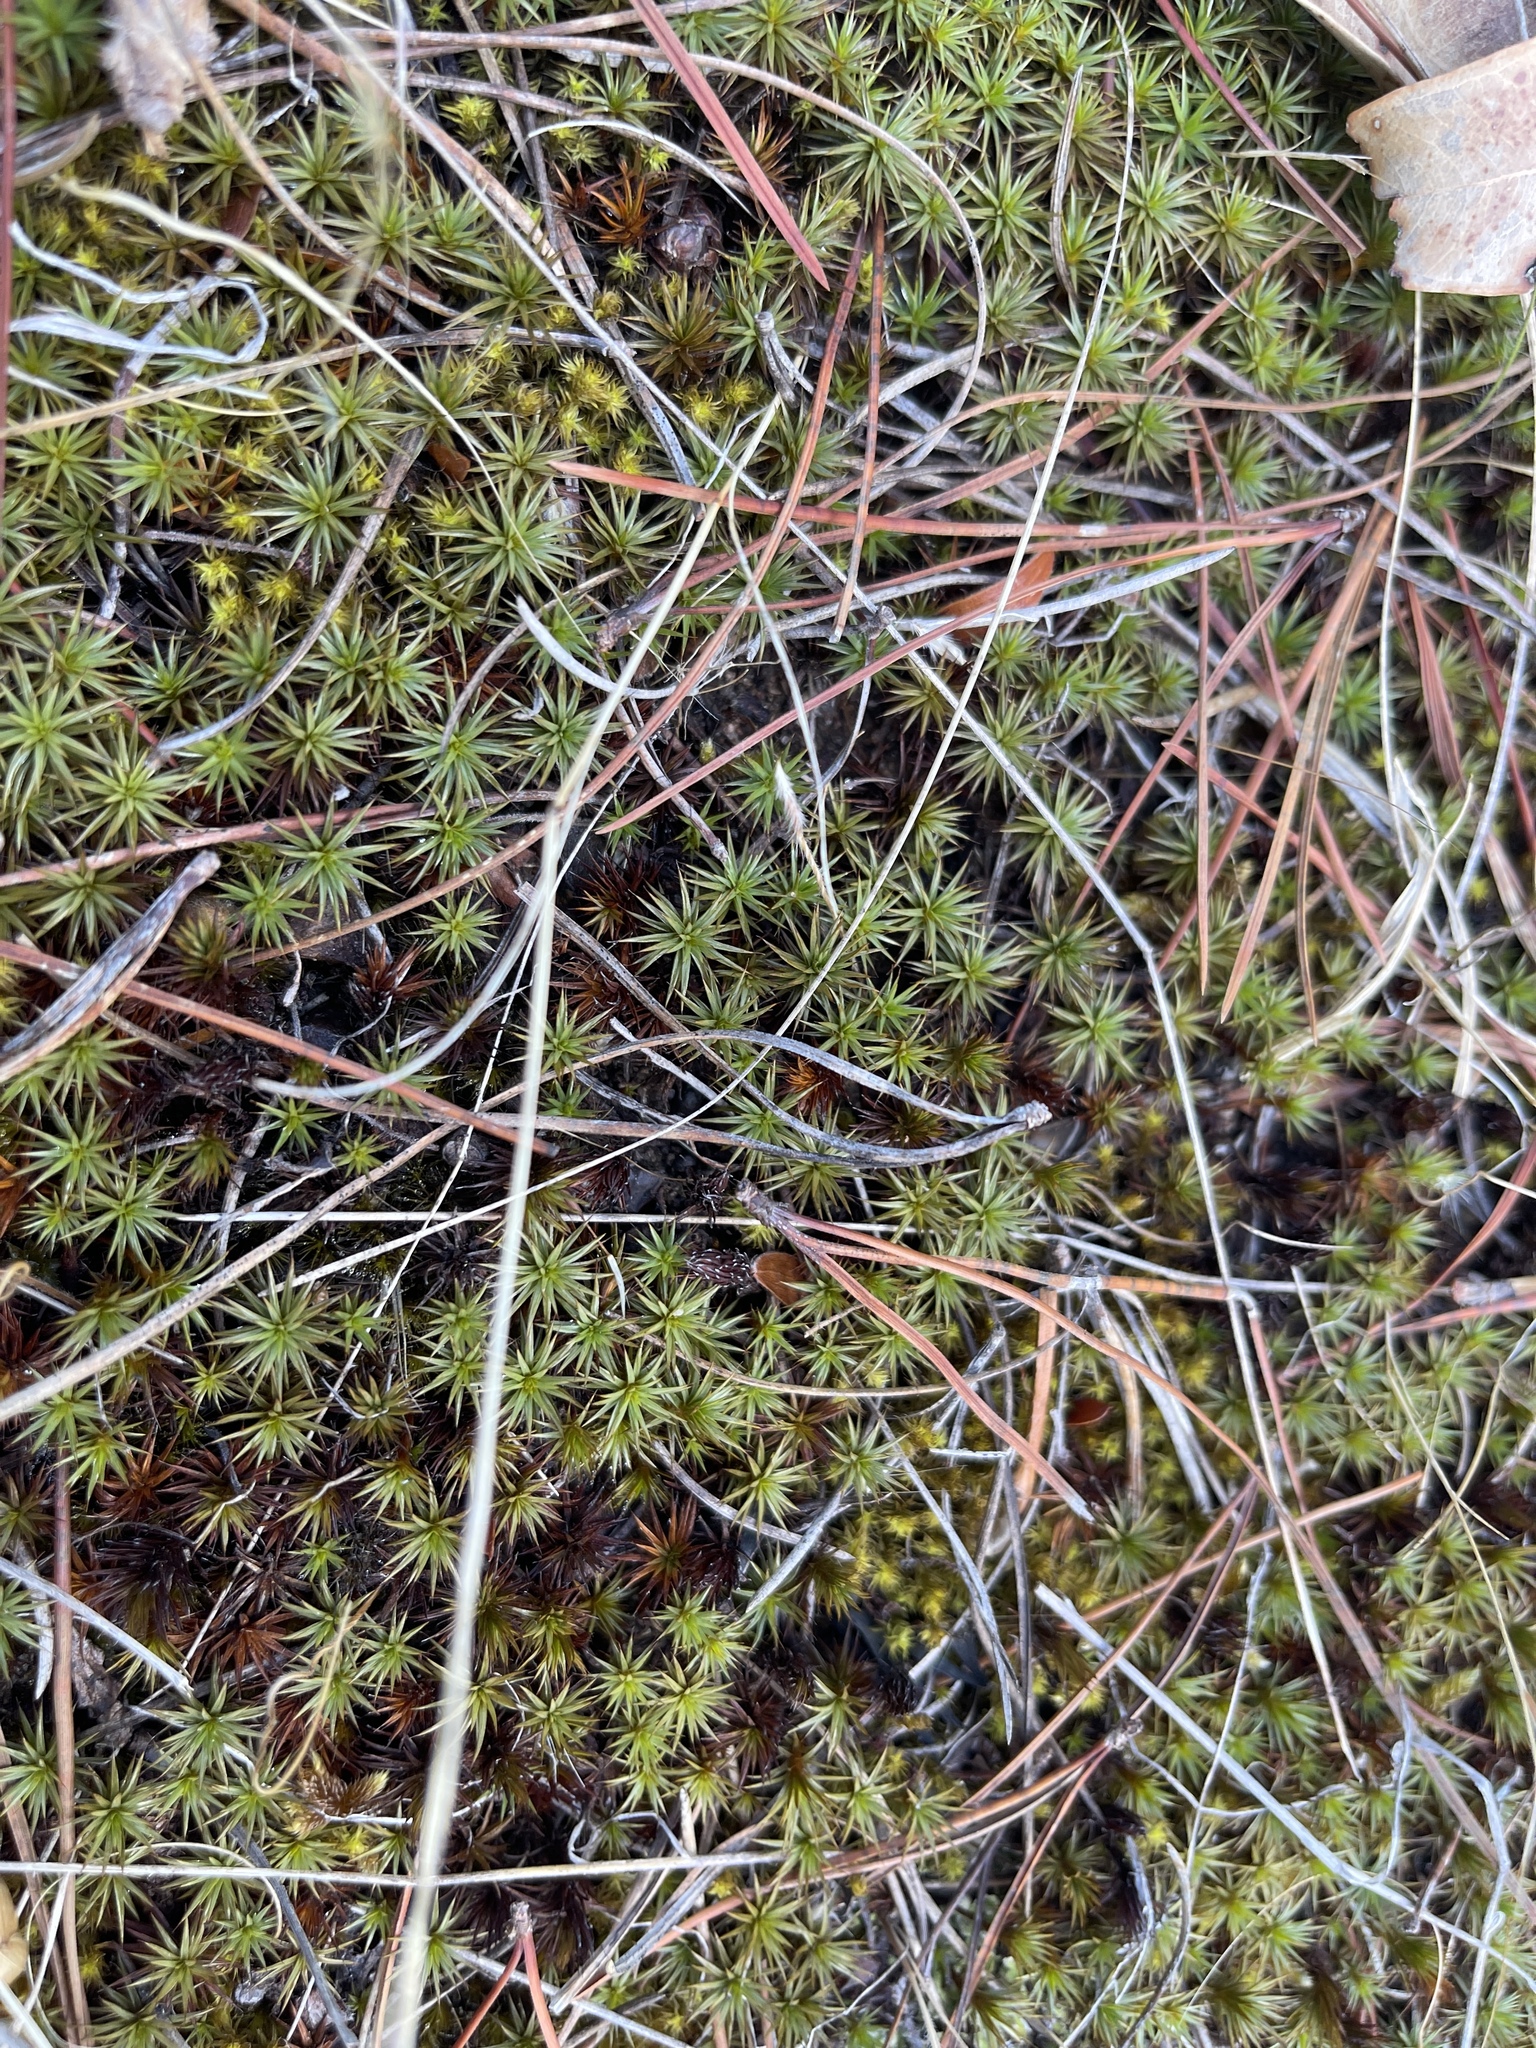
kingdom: Plantae
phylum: Bryophyta
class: Polytrichopsida
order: Polytrichales
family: Polytrichaceae
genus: Polytrichum
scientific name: Polytrichum juniperinum
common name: Juniper haircap moss
